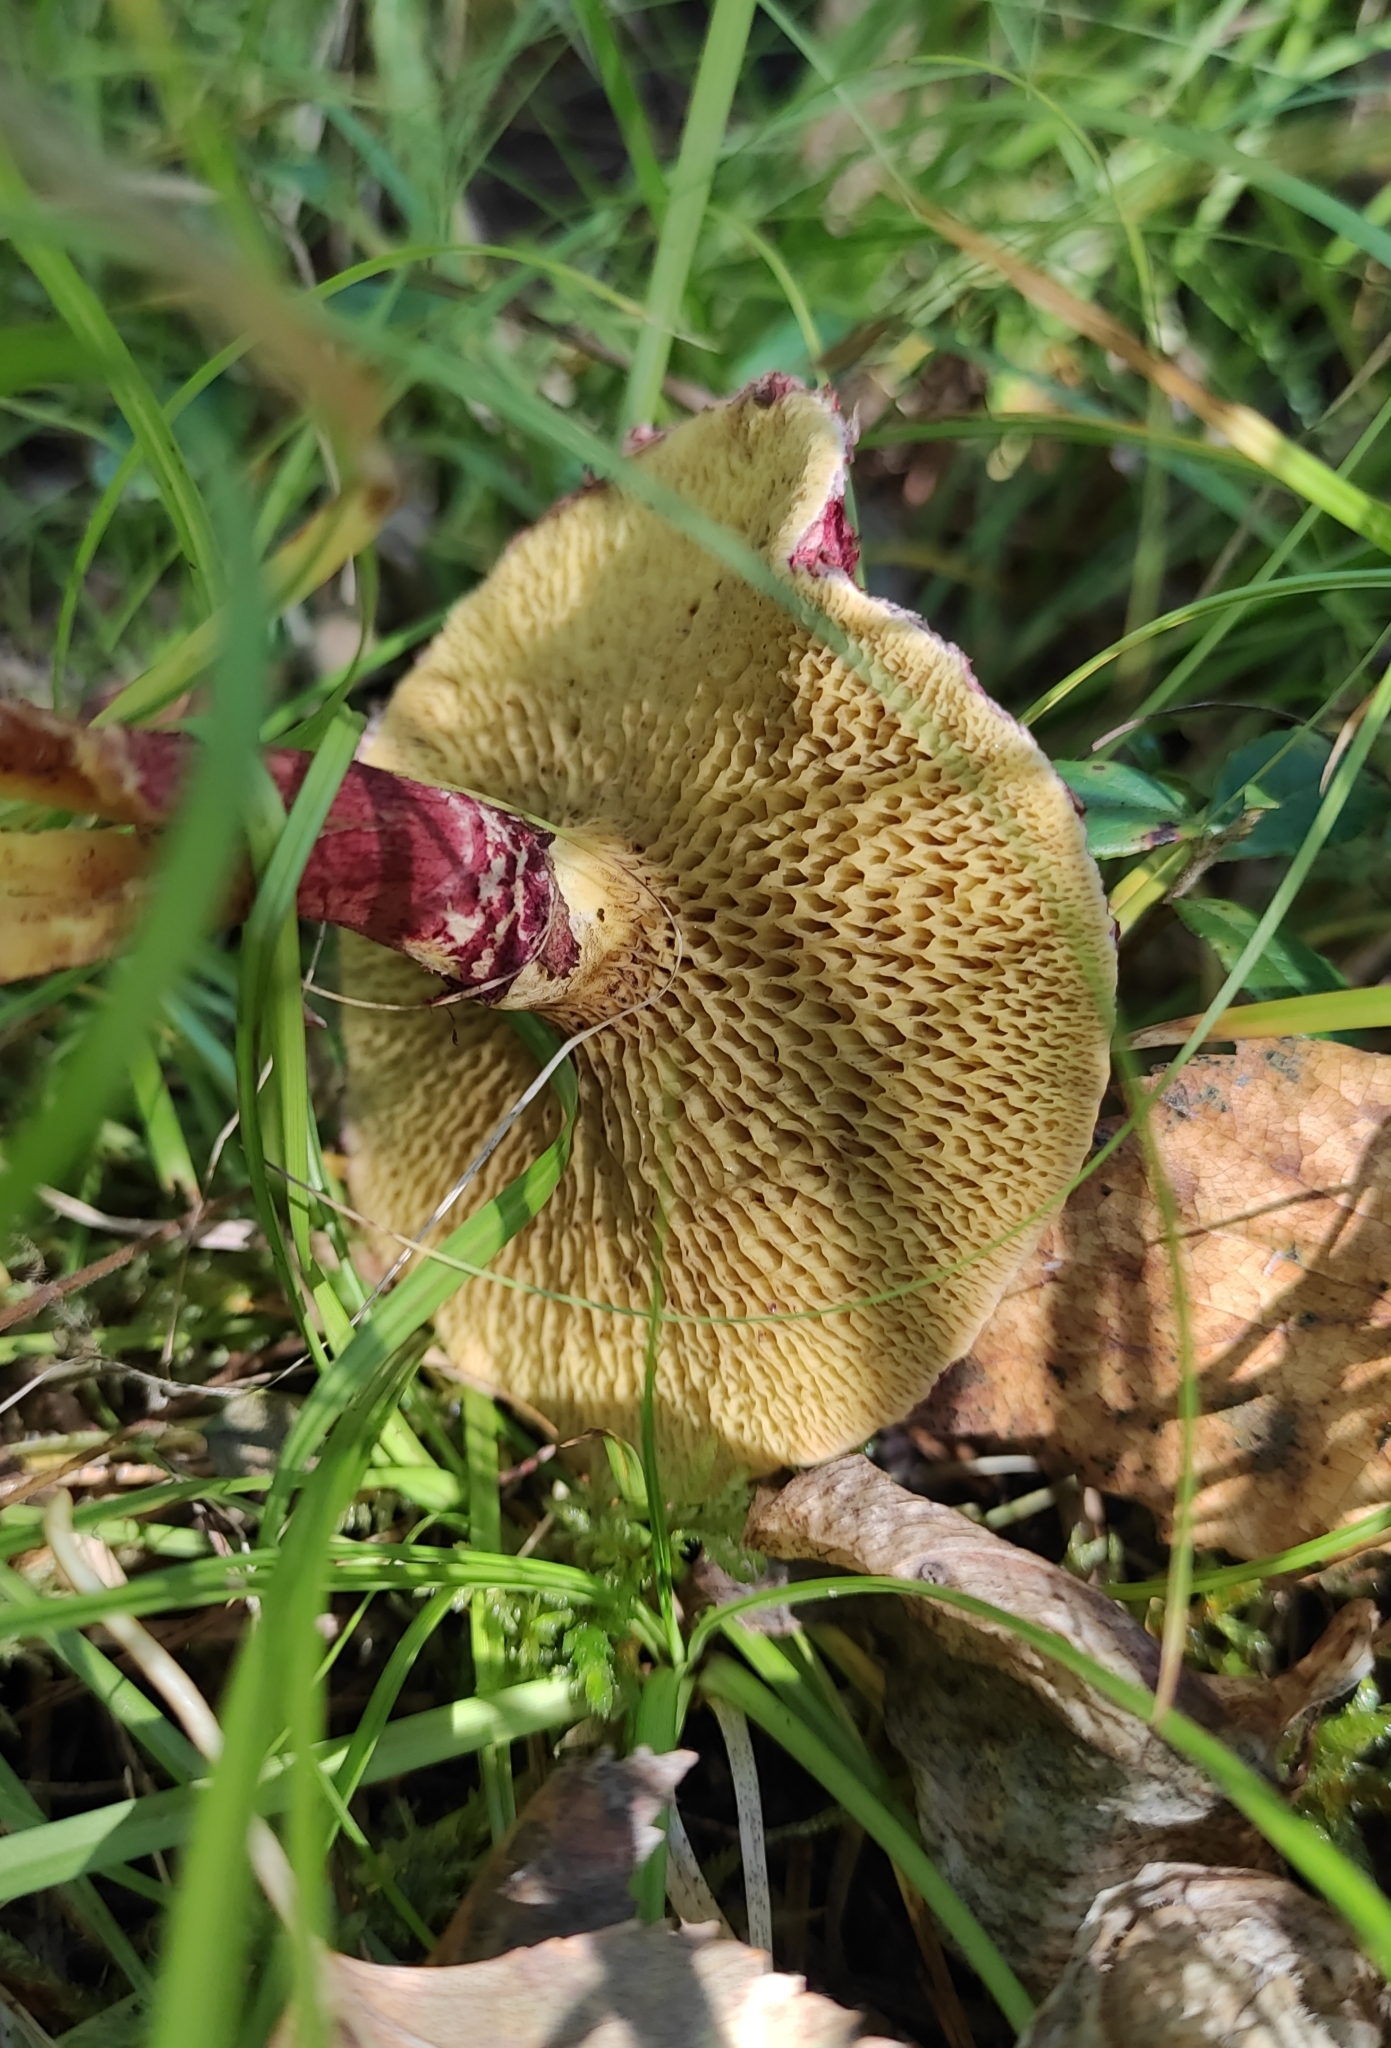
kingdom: Fungi
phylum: Basidiomycota
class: Agaricomycetes
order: Boletales
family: Suillaceae
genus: Boletinus
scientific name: Boletinus asiaticus
